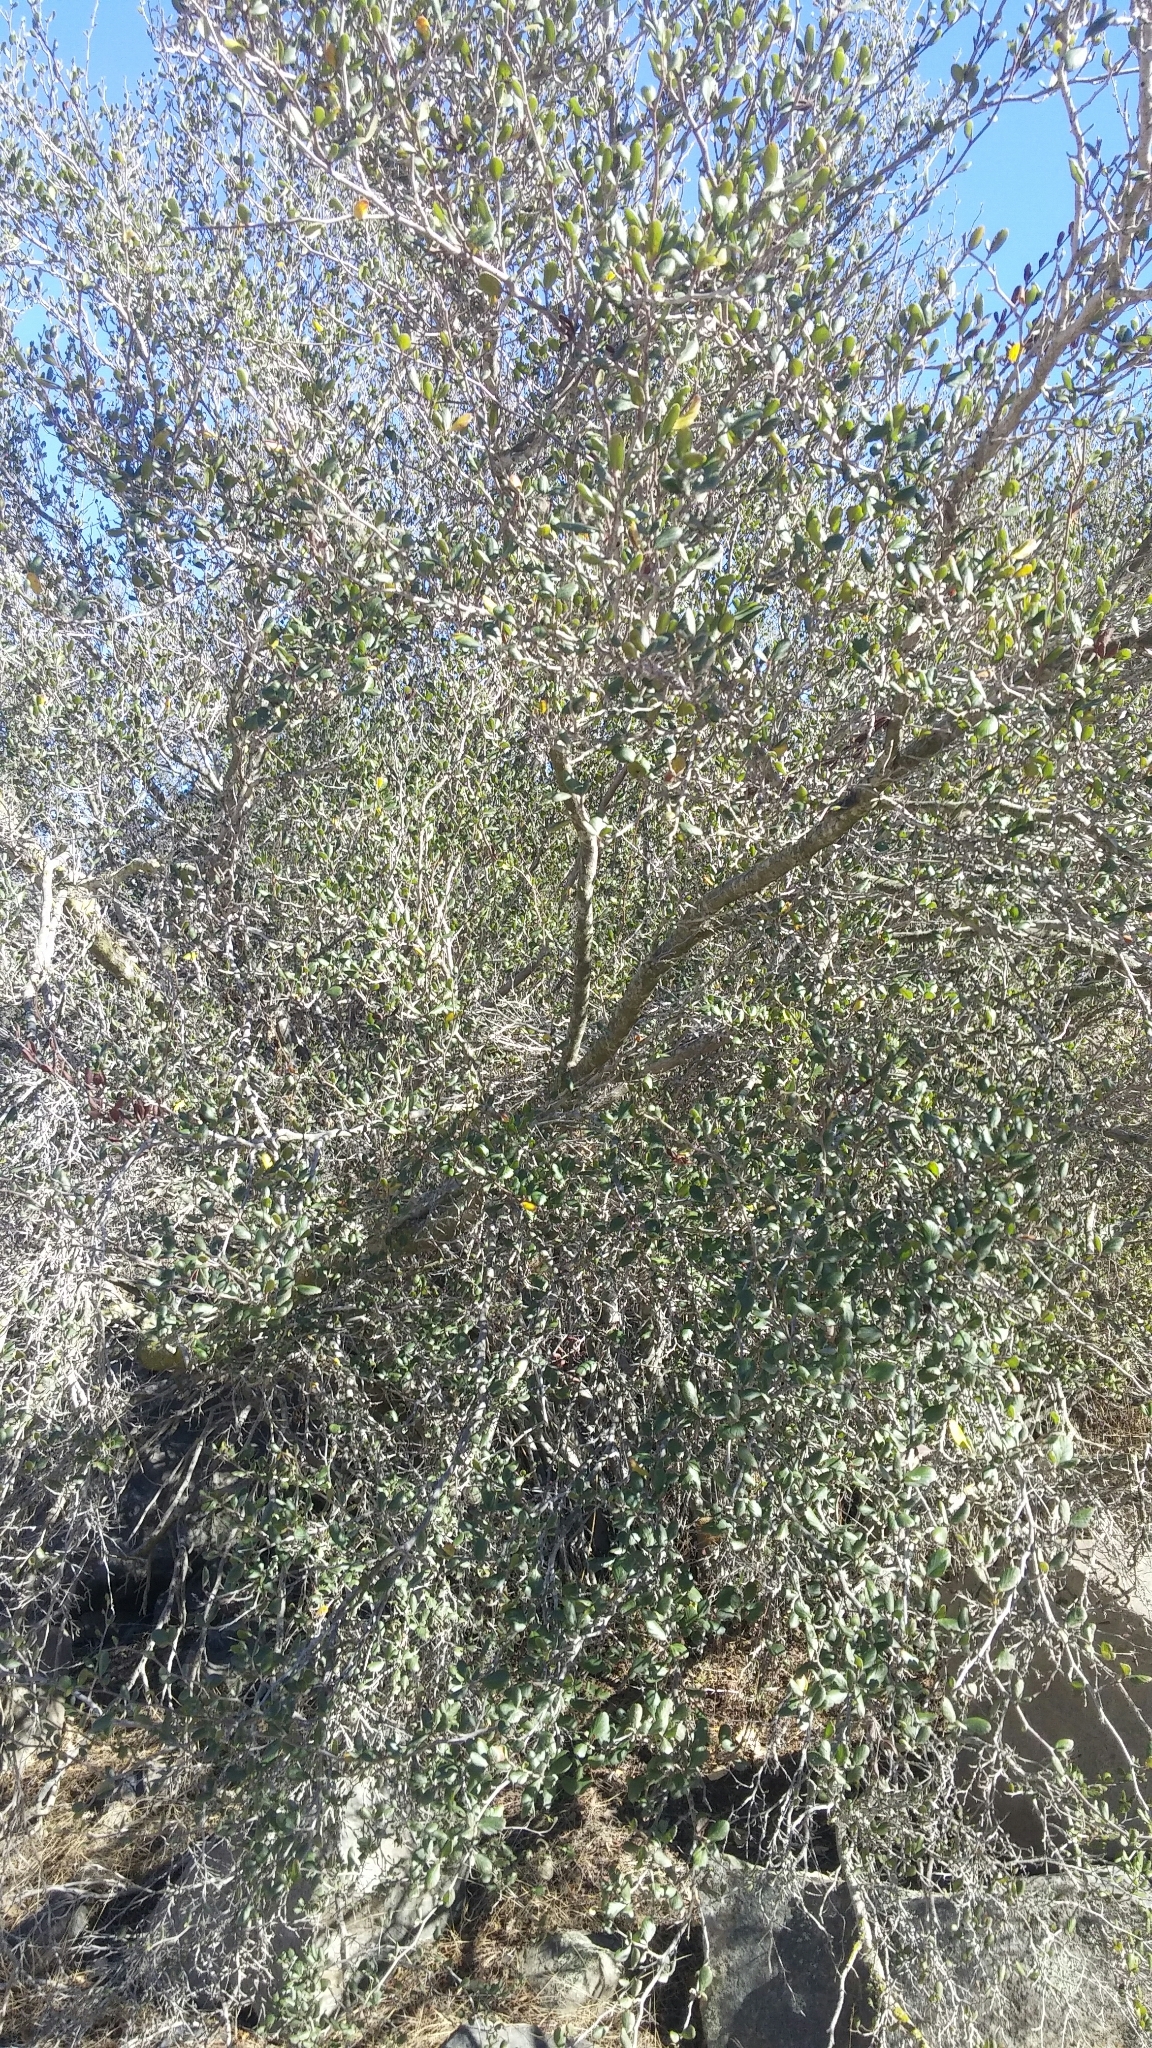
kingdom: Plantae
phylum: Tracheophyta
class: Magnoliopsida
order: Rosales
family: Rosaceae
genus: Cercocarpus
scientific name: Cercocarpus montanus
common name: Alder-leaf cercocarpus
